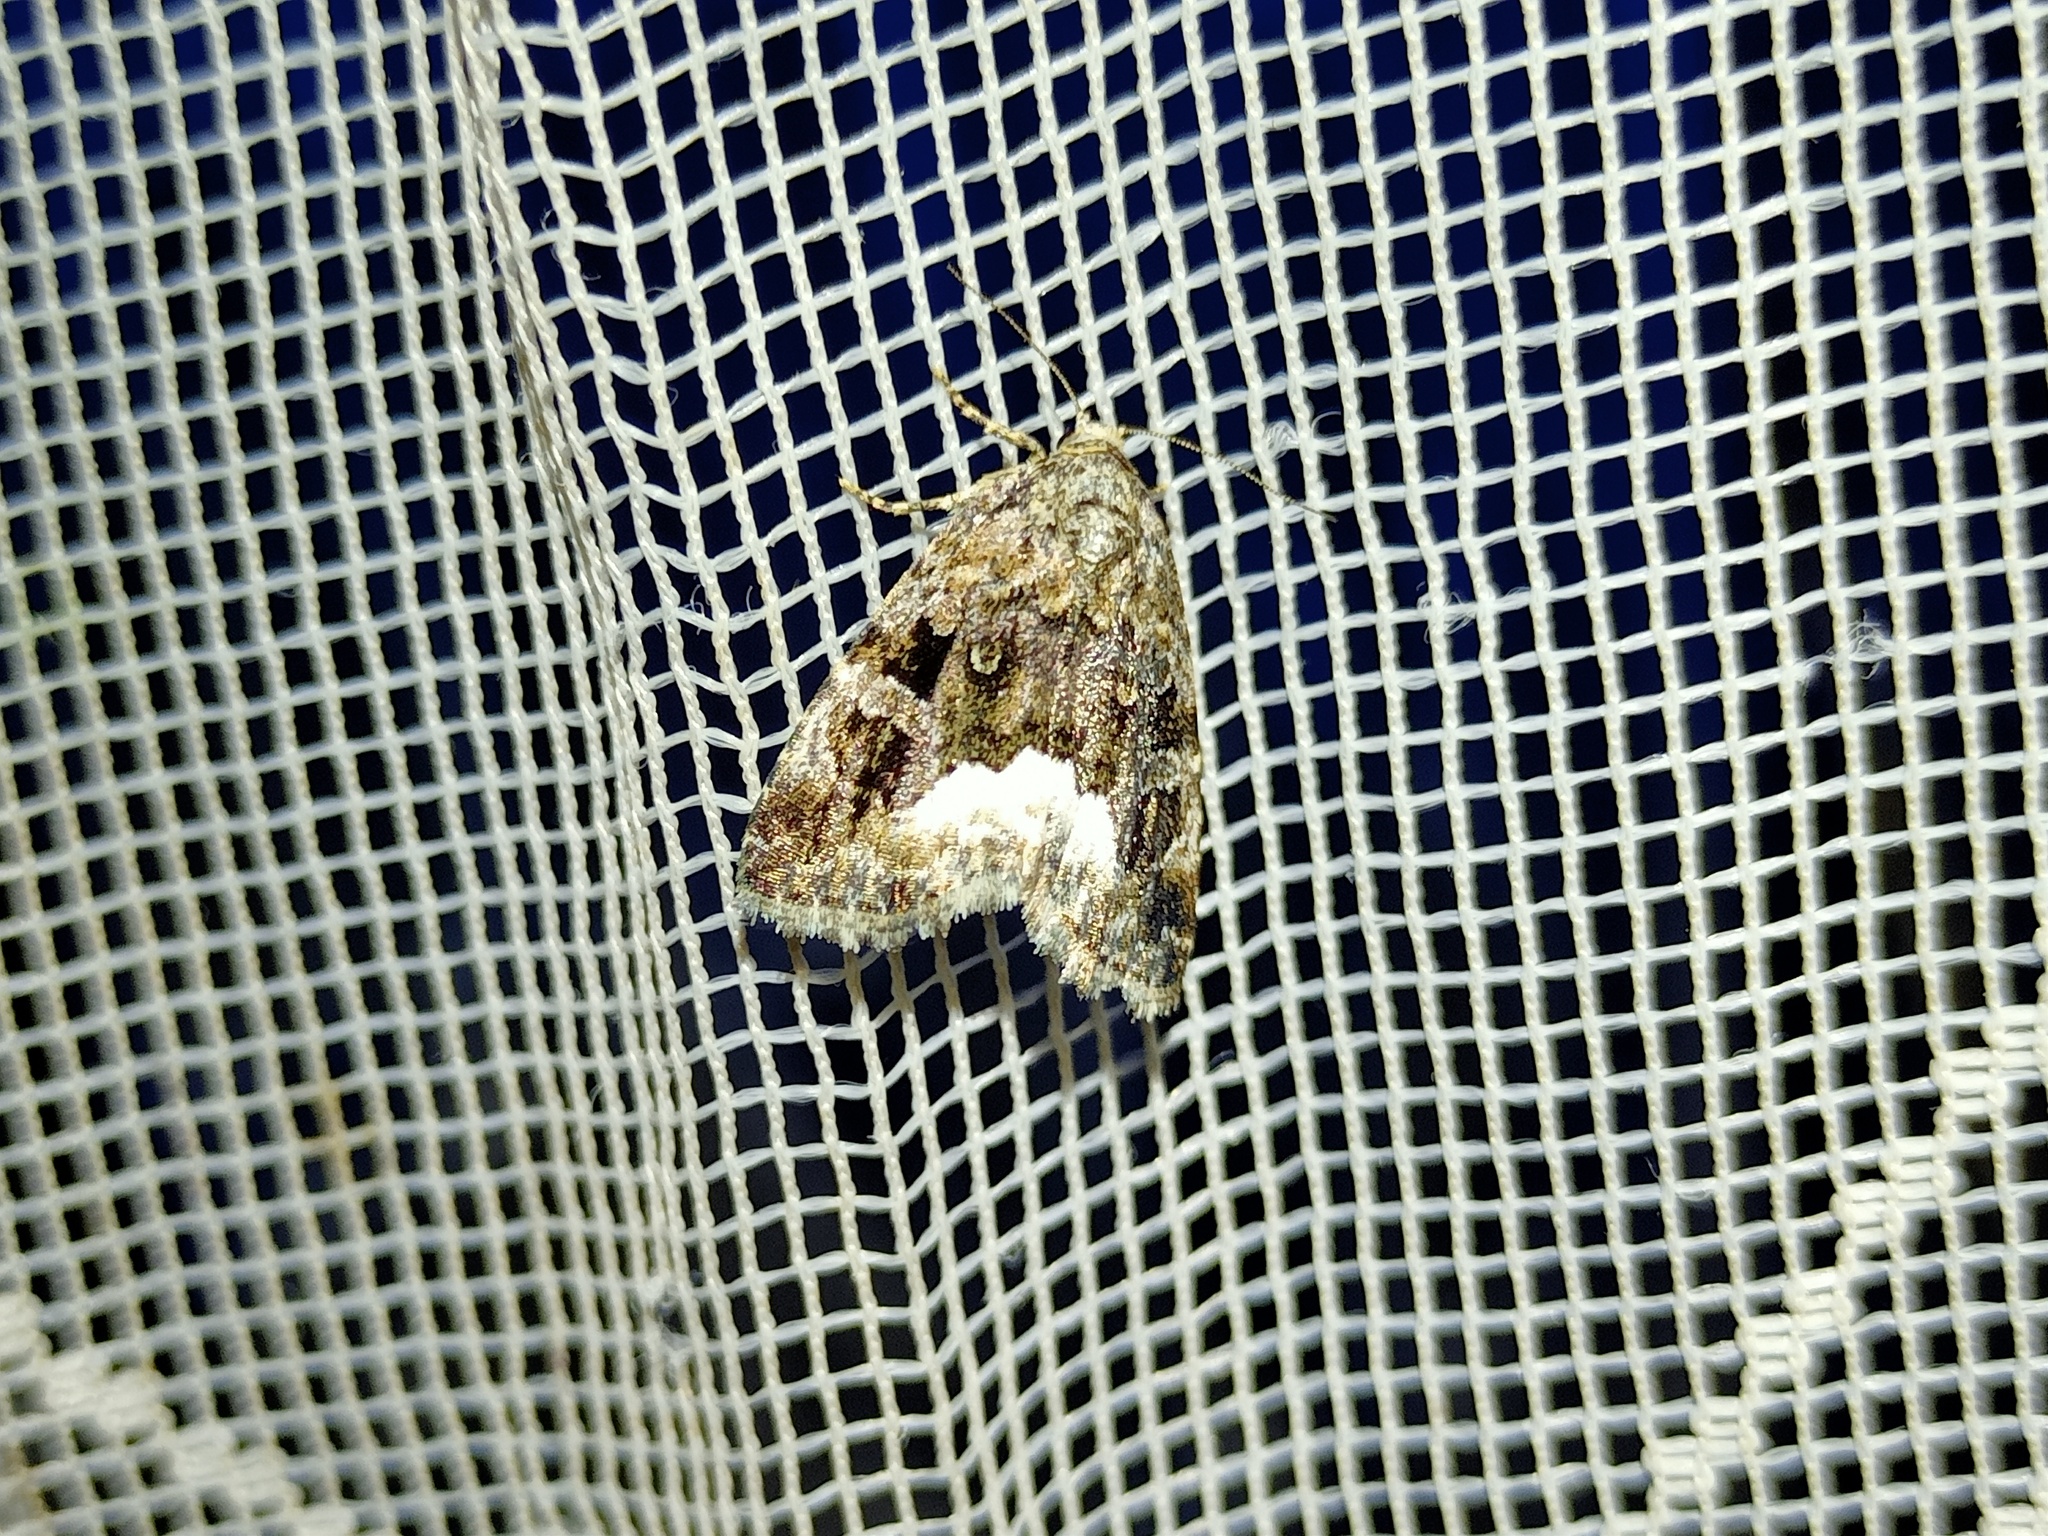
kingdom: Animalia
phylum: Arthropoda
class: Insecta
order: Lepidoptera
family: Noctuidae
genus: Deltote
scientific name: Deltote pygarga
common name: Marbled white spot
